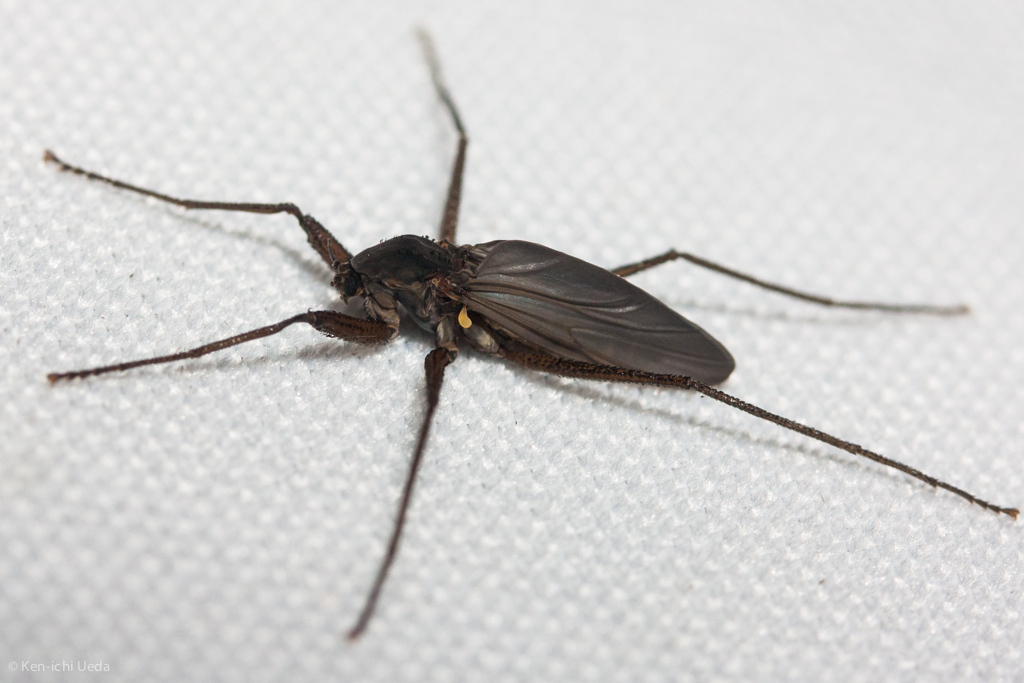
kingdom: Animalia
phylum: Arthropoda
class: Insecta
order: Diptera
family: Chironomidae
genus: Telmatogeton
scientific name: Telmatogeton trilobatus
